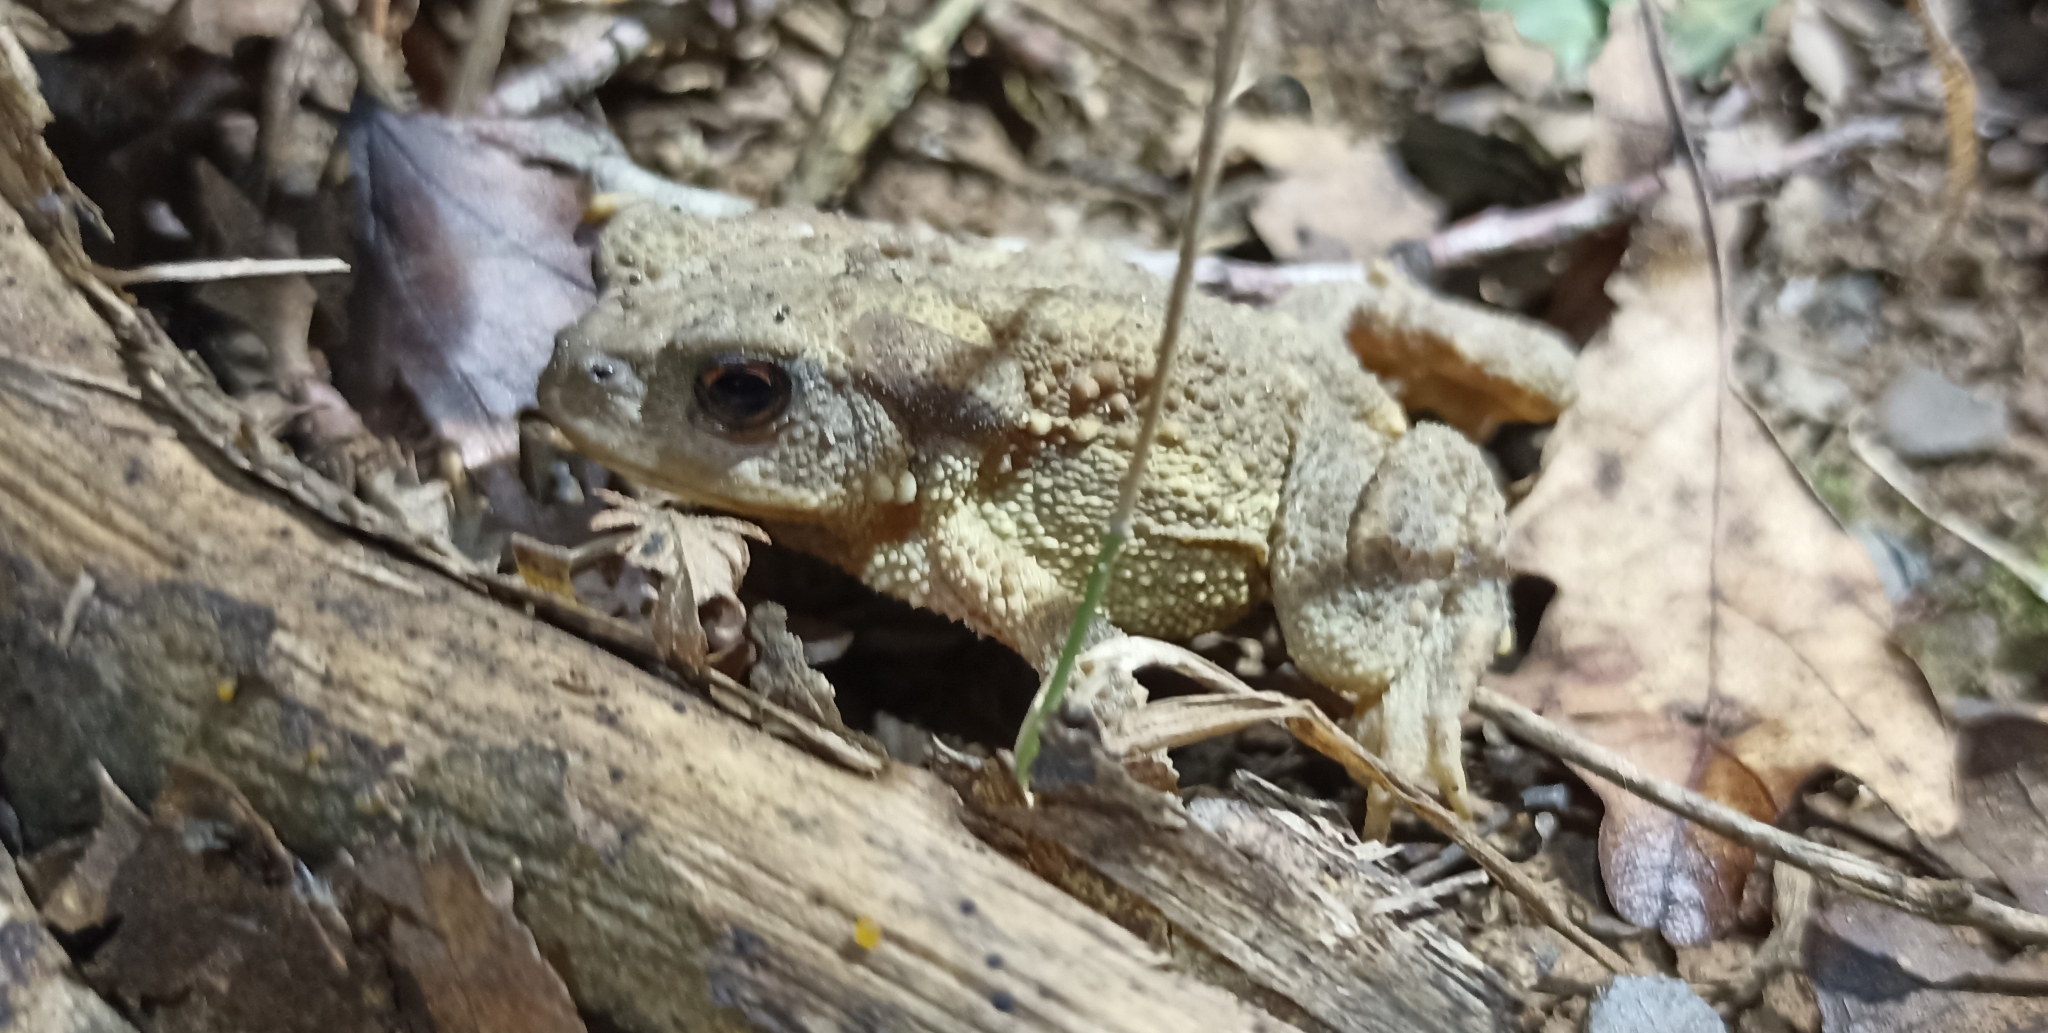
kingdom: Animalia
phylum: Chordata
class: Amphibia
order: Anura
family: Bufonidae
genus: Bufo
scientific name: Bufo spinosus
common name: Western common toad
